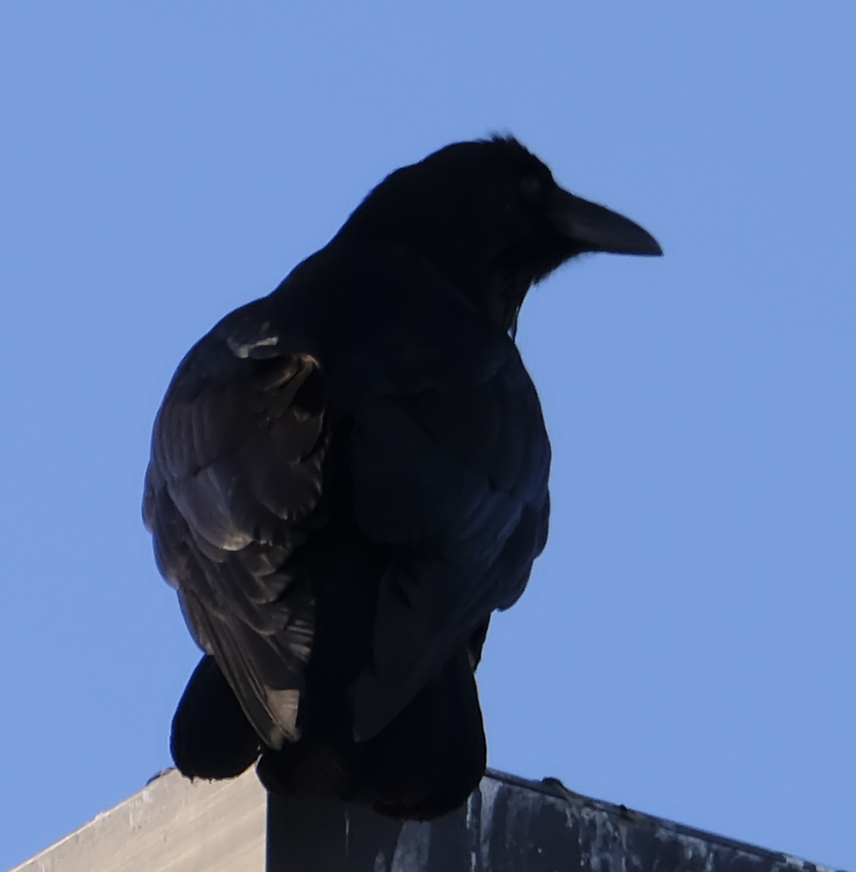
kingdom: Animalia
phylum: Chordata
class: Aves
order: Passeriformes
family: Corvidae
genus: Corvus
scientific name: Corvus corax
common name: Common raven
